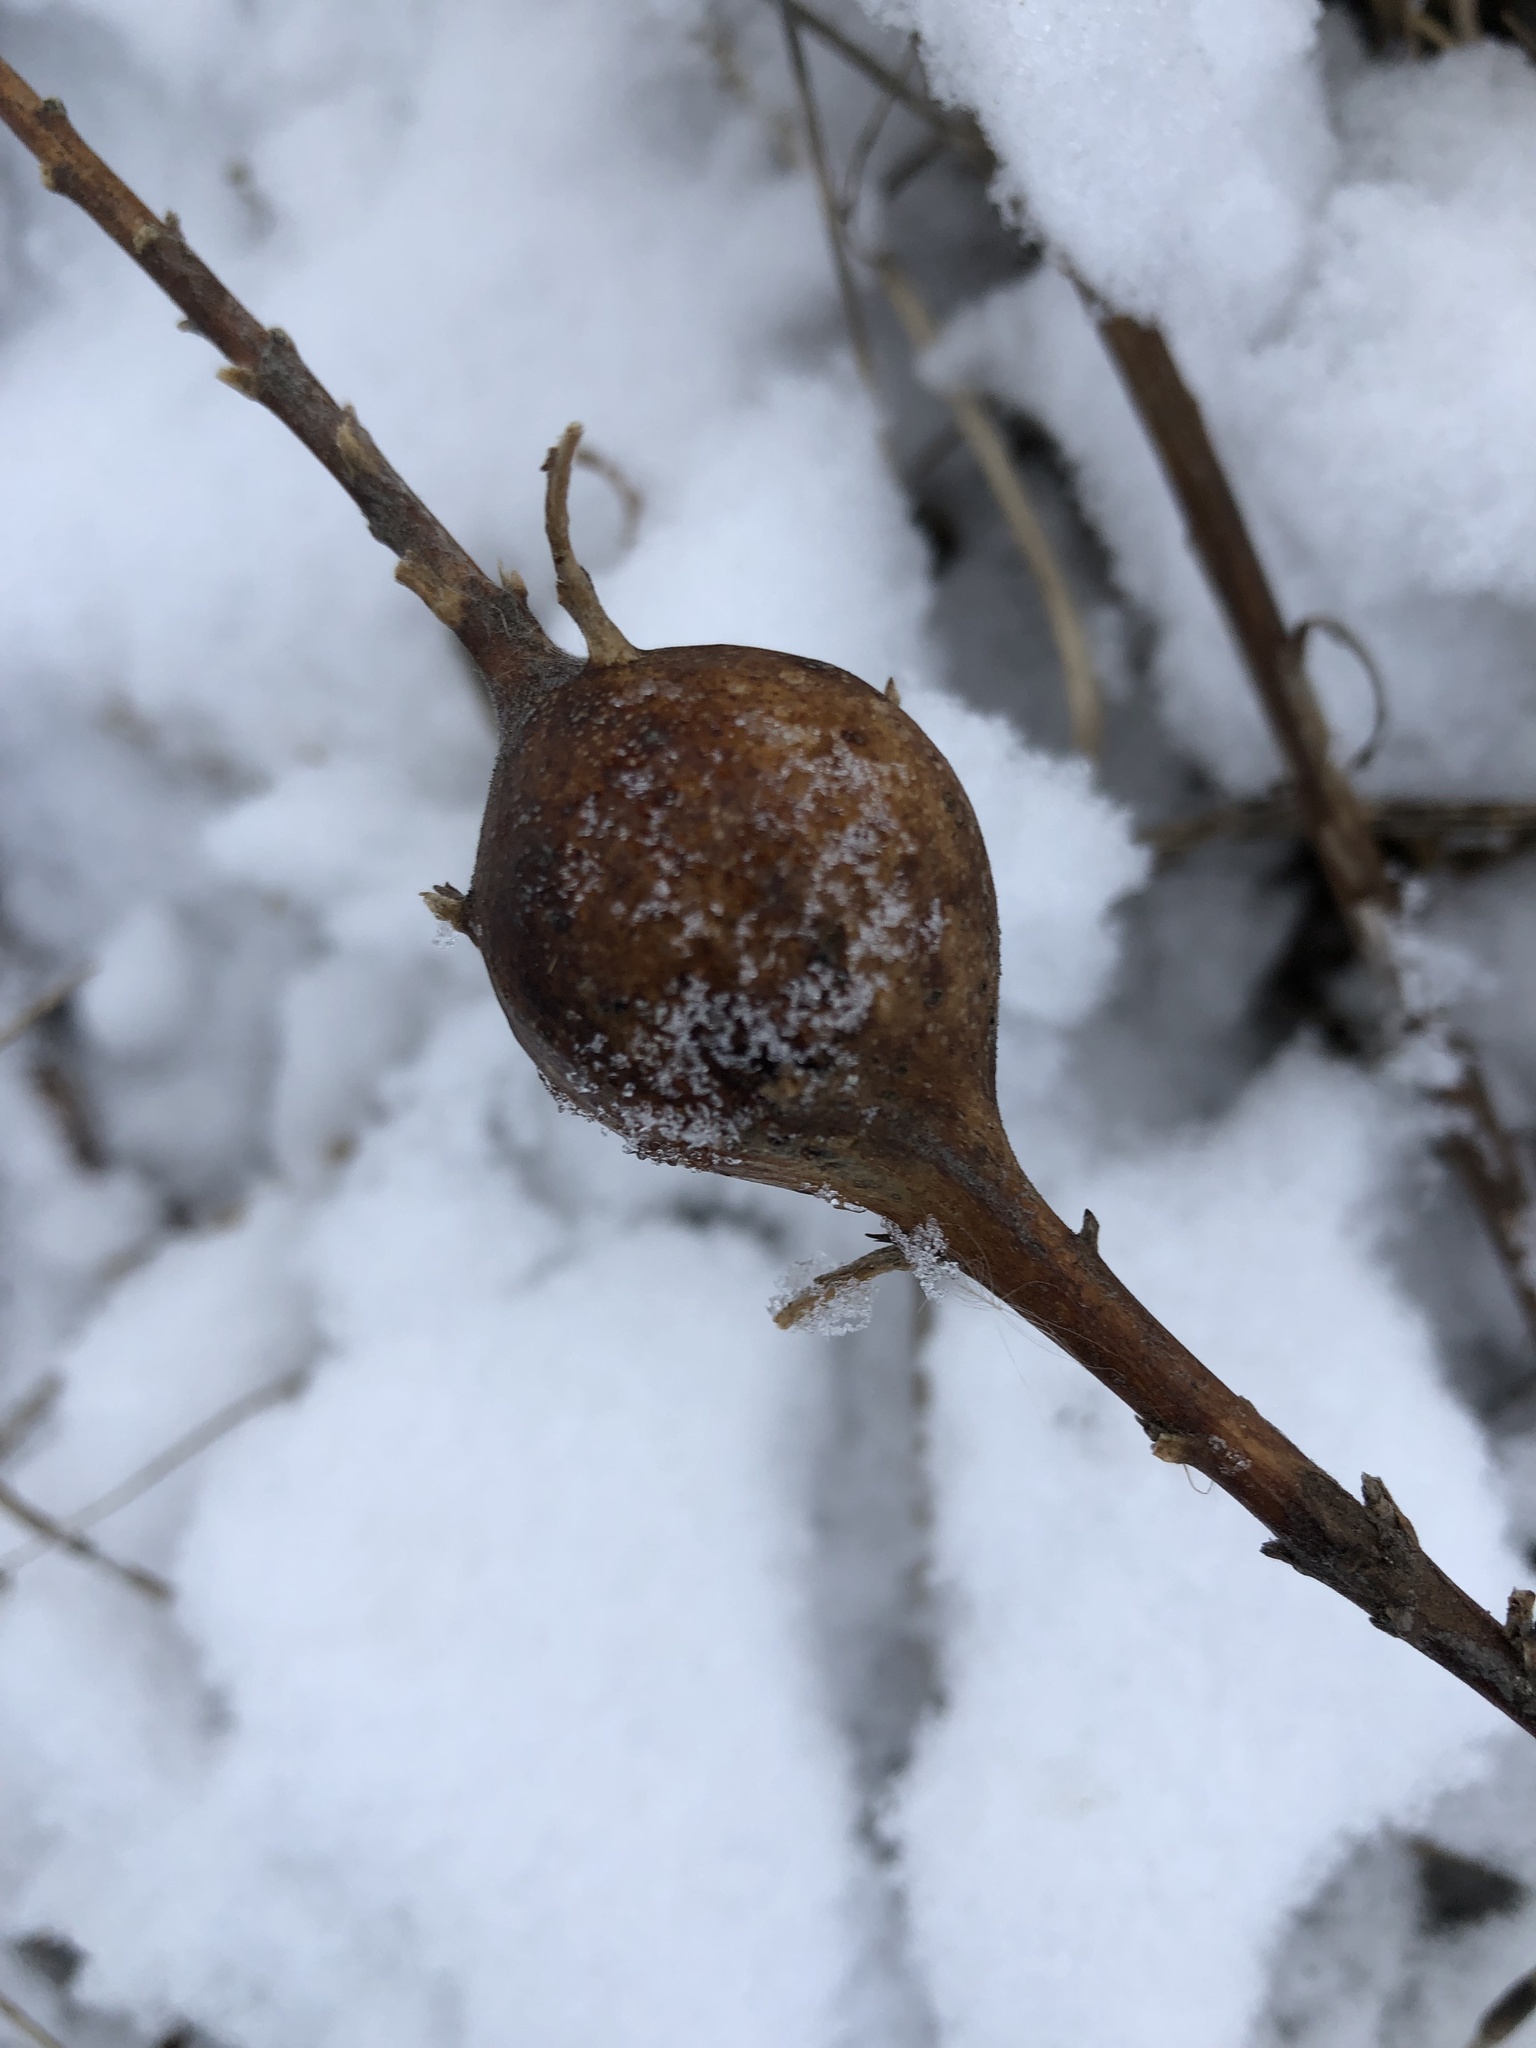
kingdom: Animalia
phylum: Arthropoda
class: Insecta
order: Diptera
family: Tephritidae
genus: Eurosta
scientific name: Eurosta solidaginis
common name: Goldenrod gall fly
